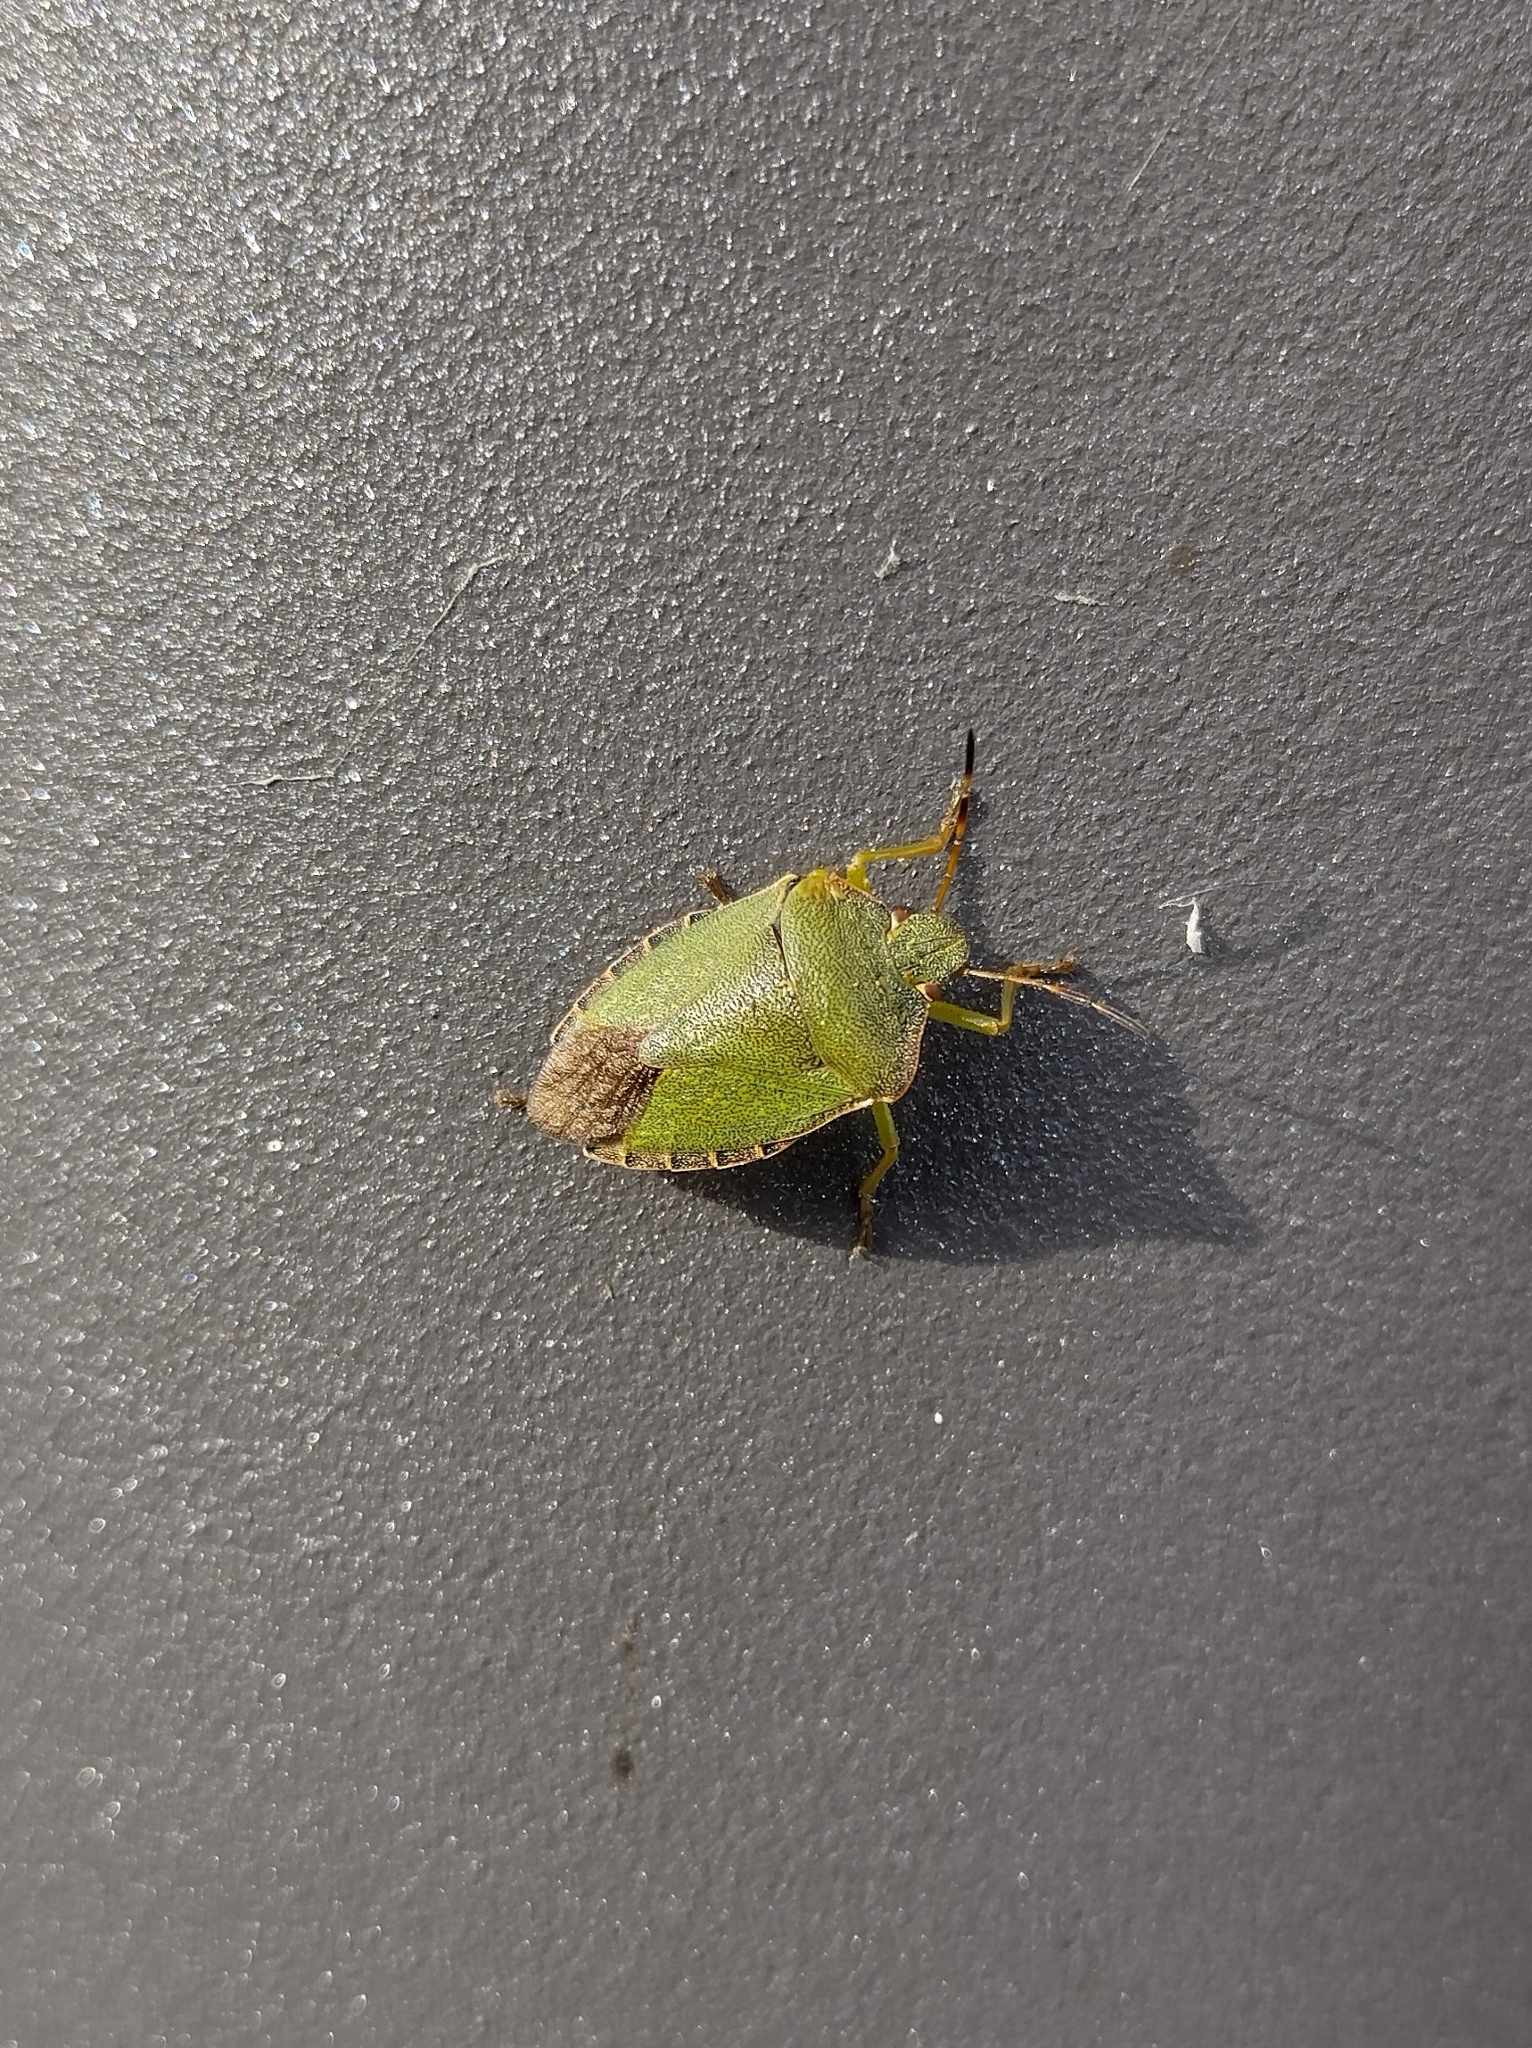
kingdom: Animalia
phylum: Arthropoda
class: Insecta
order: Hemiptera
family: Pentatomidae
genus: Palomena
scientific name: Palomena prasina
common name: Green shieldbug
